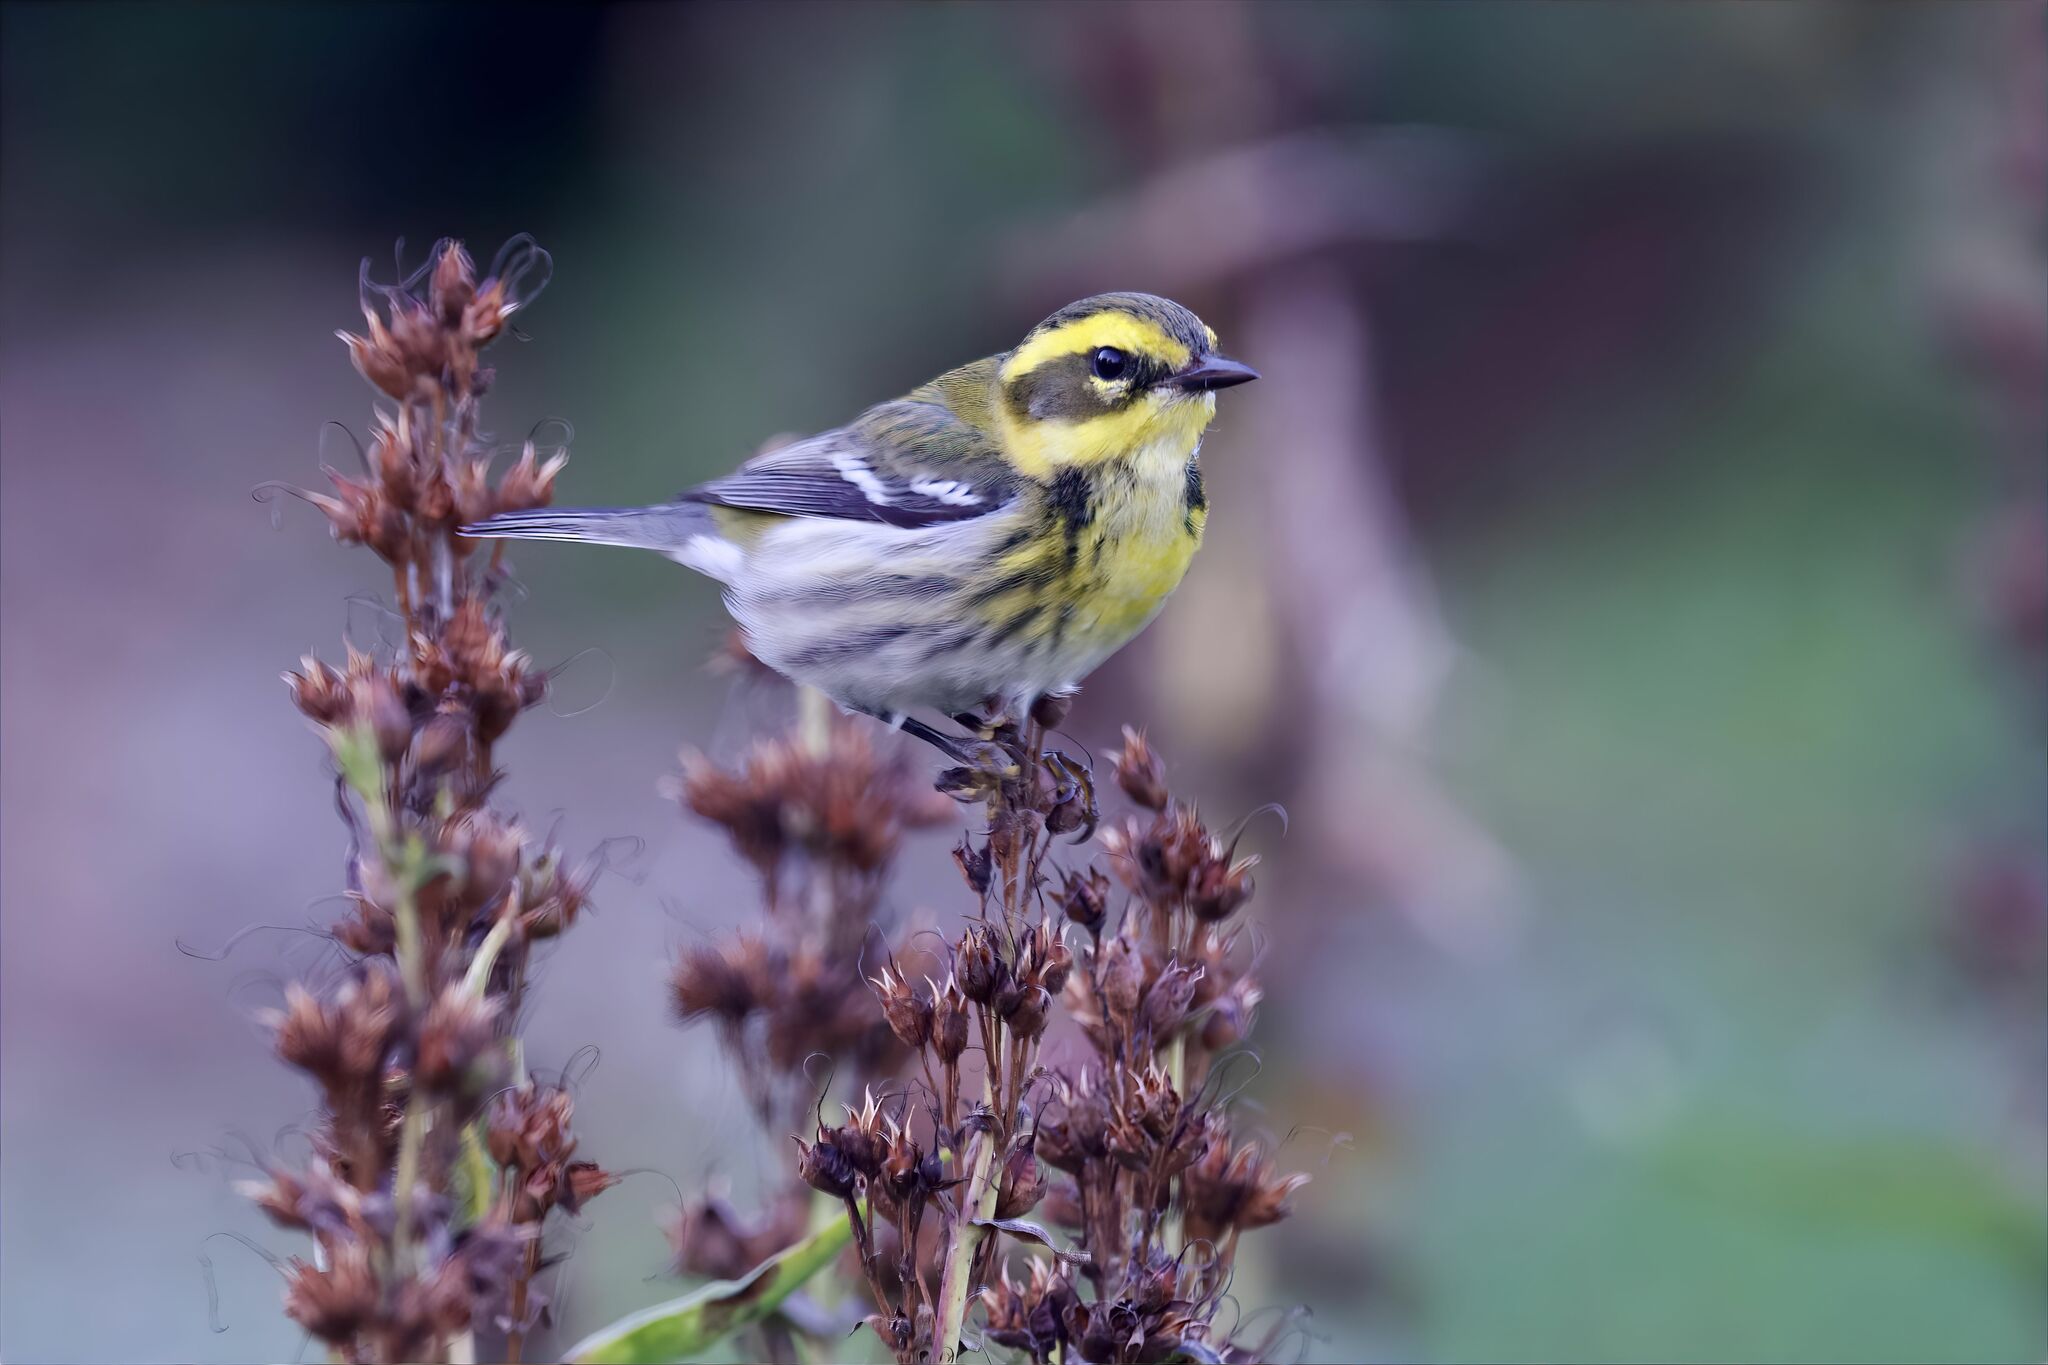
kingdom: Animalia
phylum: Chordata
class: Aves
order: Passeriformes
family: Parulidae
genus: Setophaga
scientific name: Setophaga townsendi
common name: Townsend's warbler
